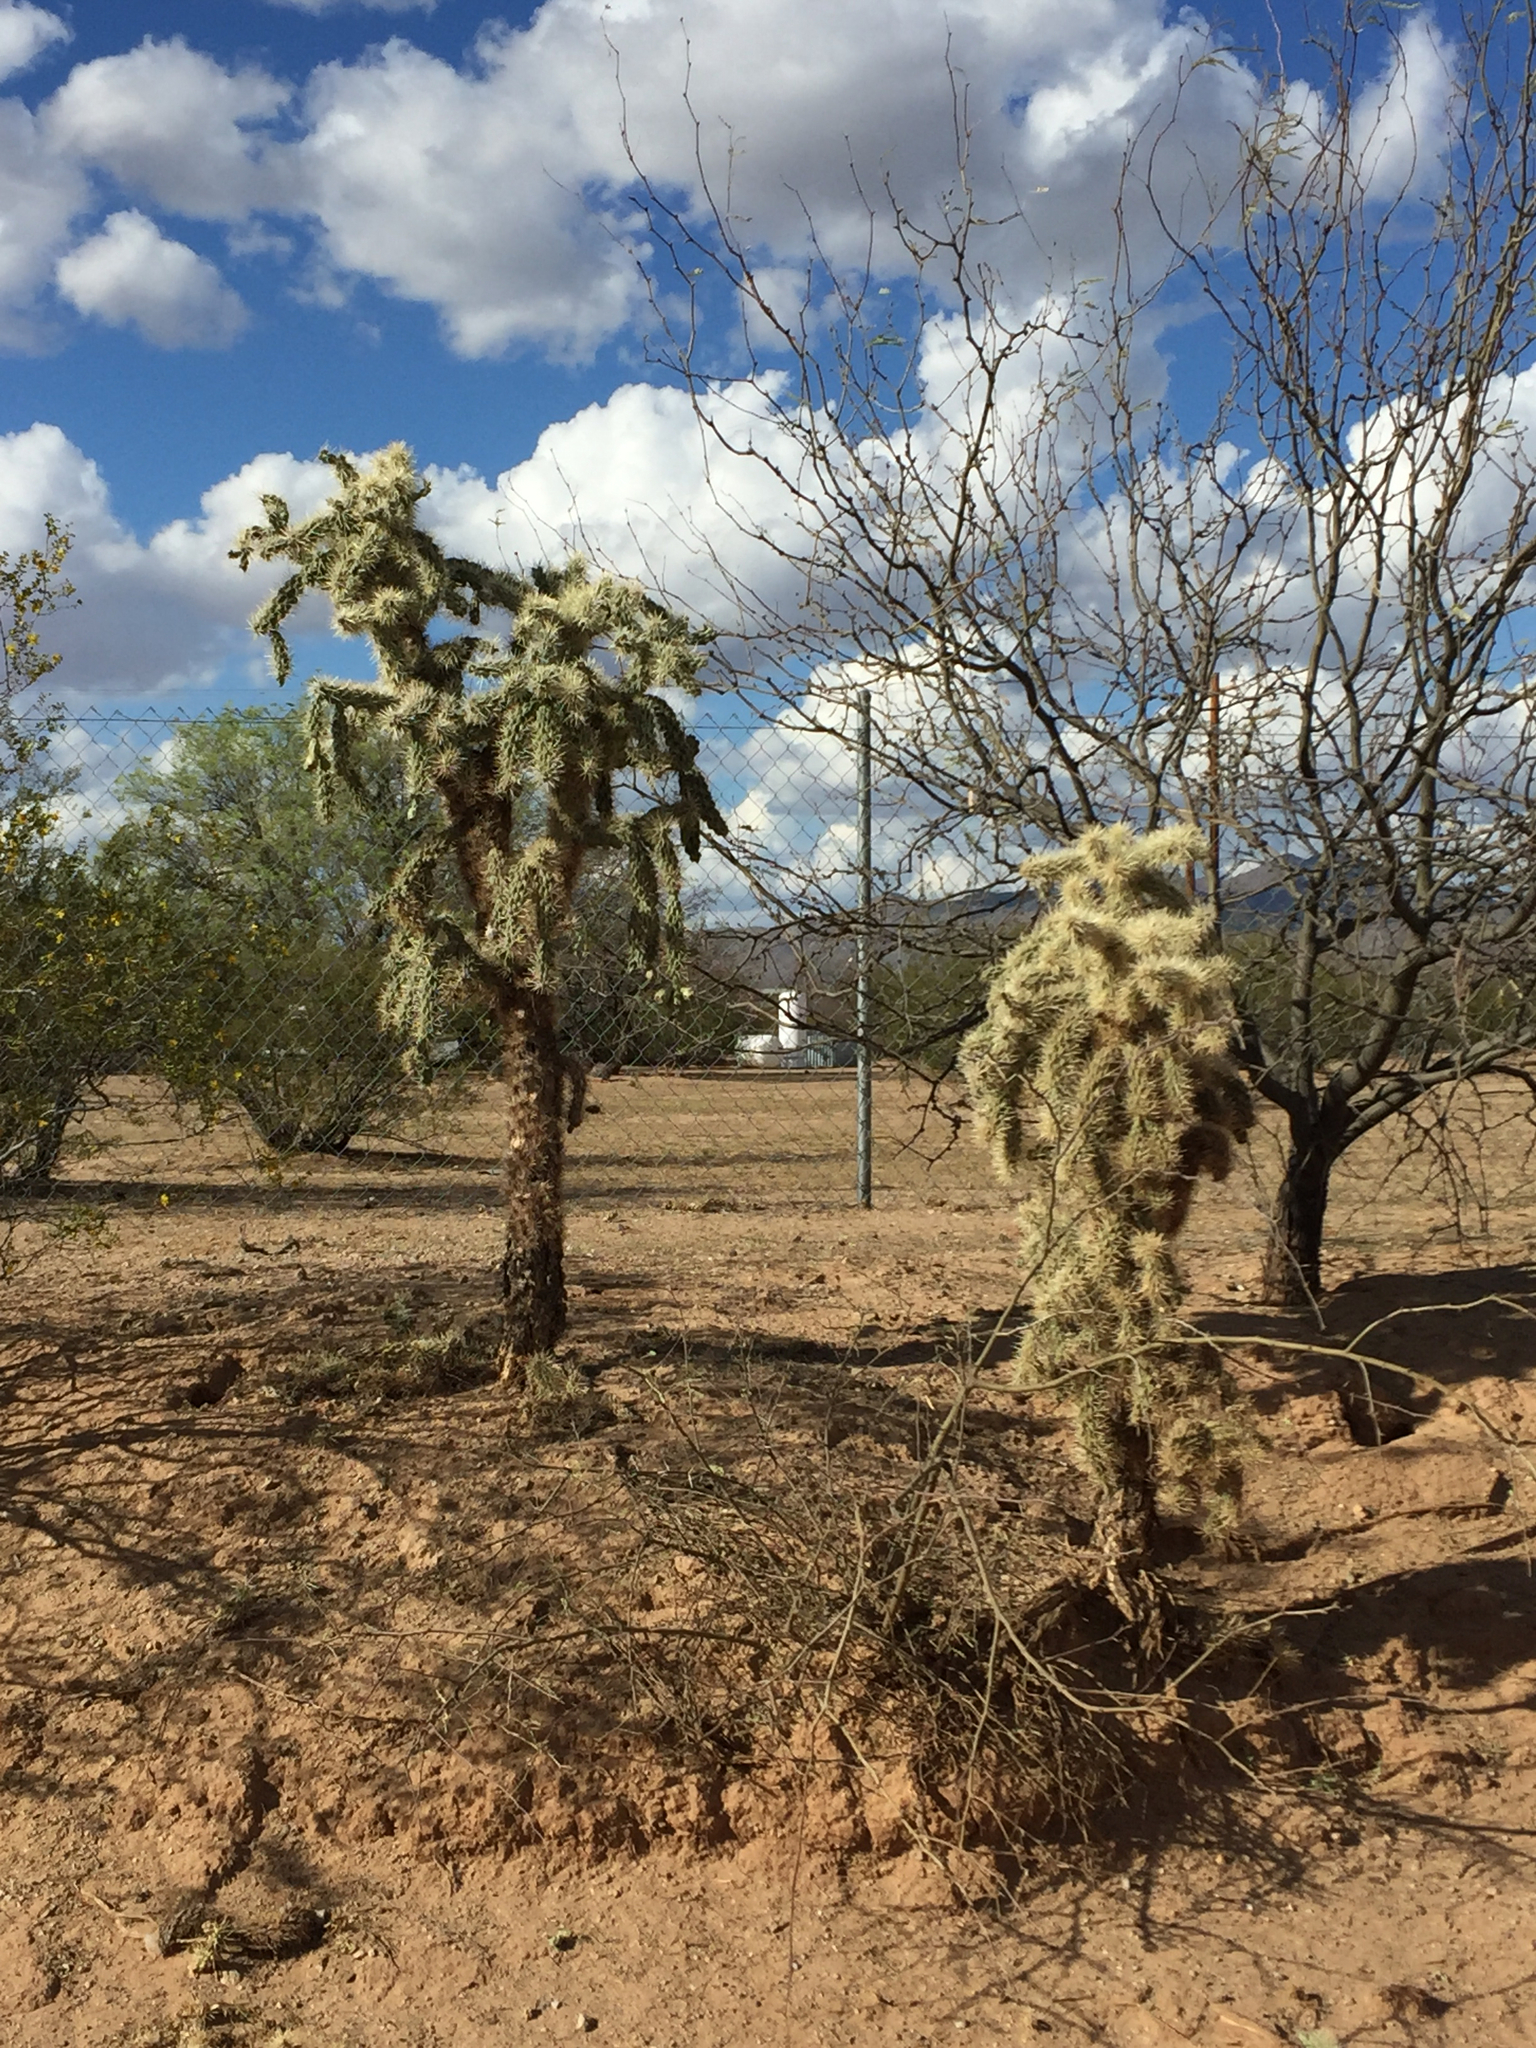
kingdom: Plantae
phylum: Tracheophyta
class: Magnoliopsida
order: Caryophyllales
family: Cactaceae
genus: Cylindropuntia
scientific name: Cylindropuntia fulgida
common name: Jumping cholla
